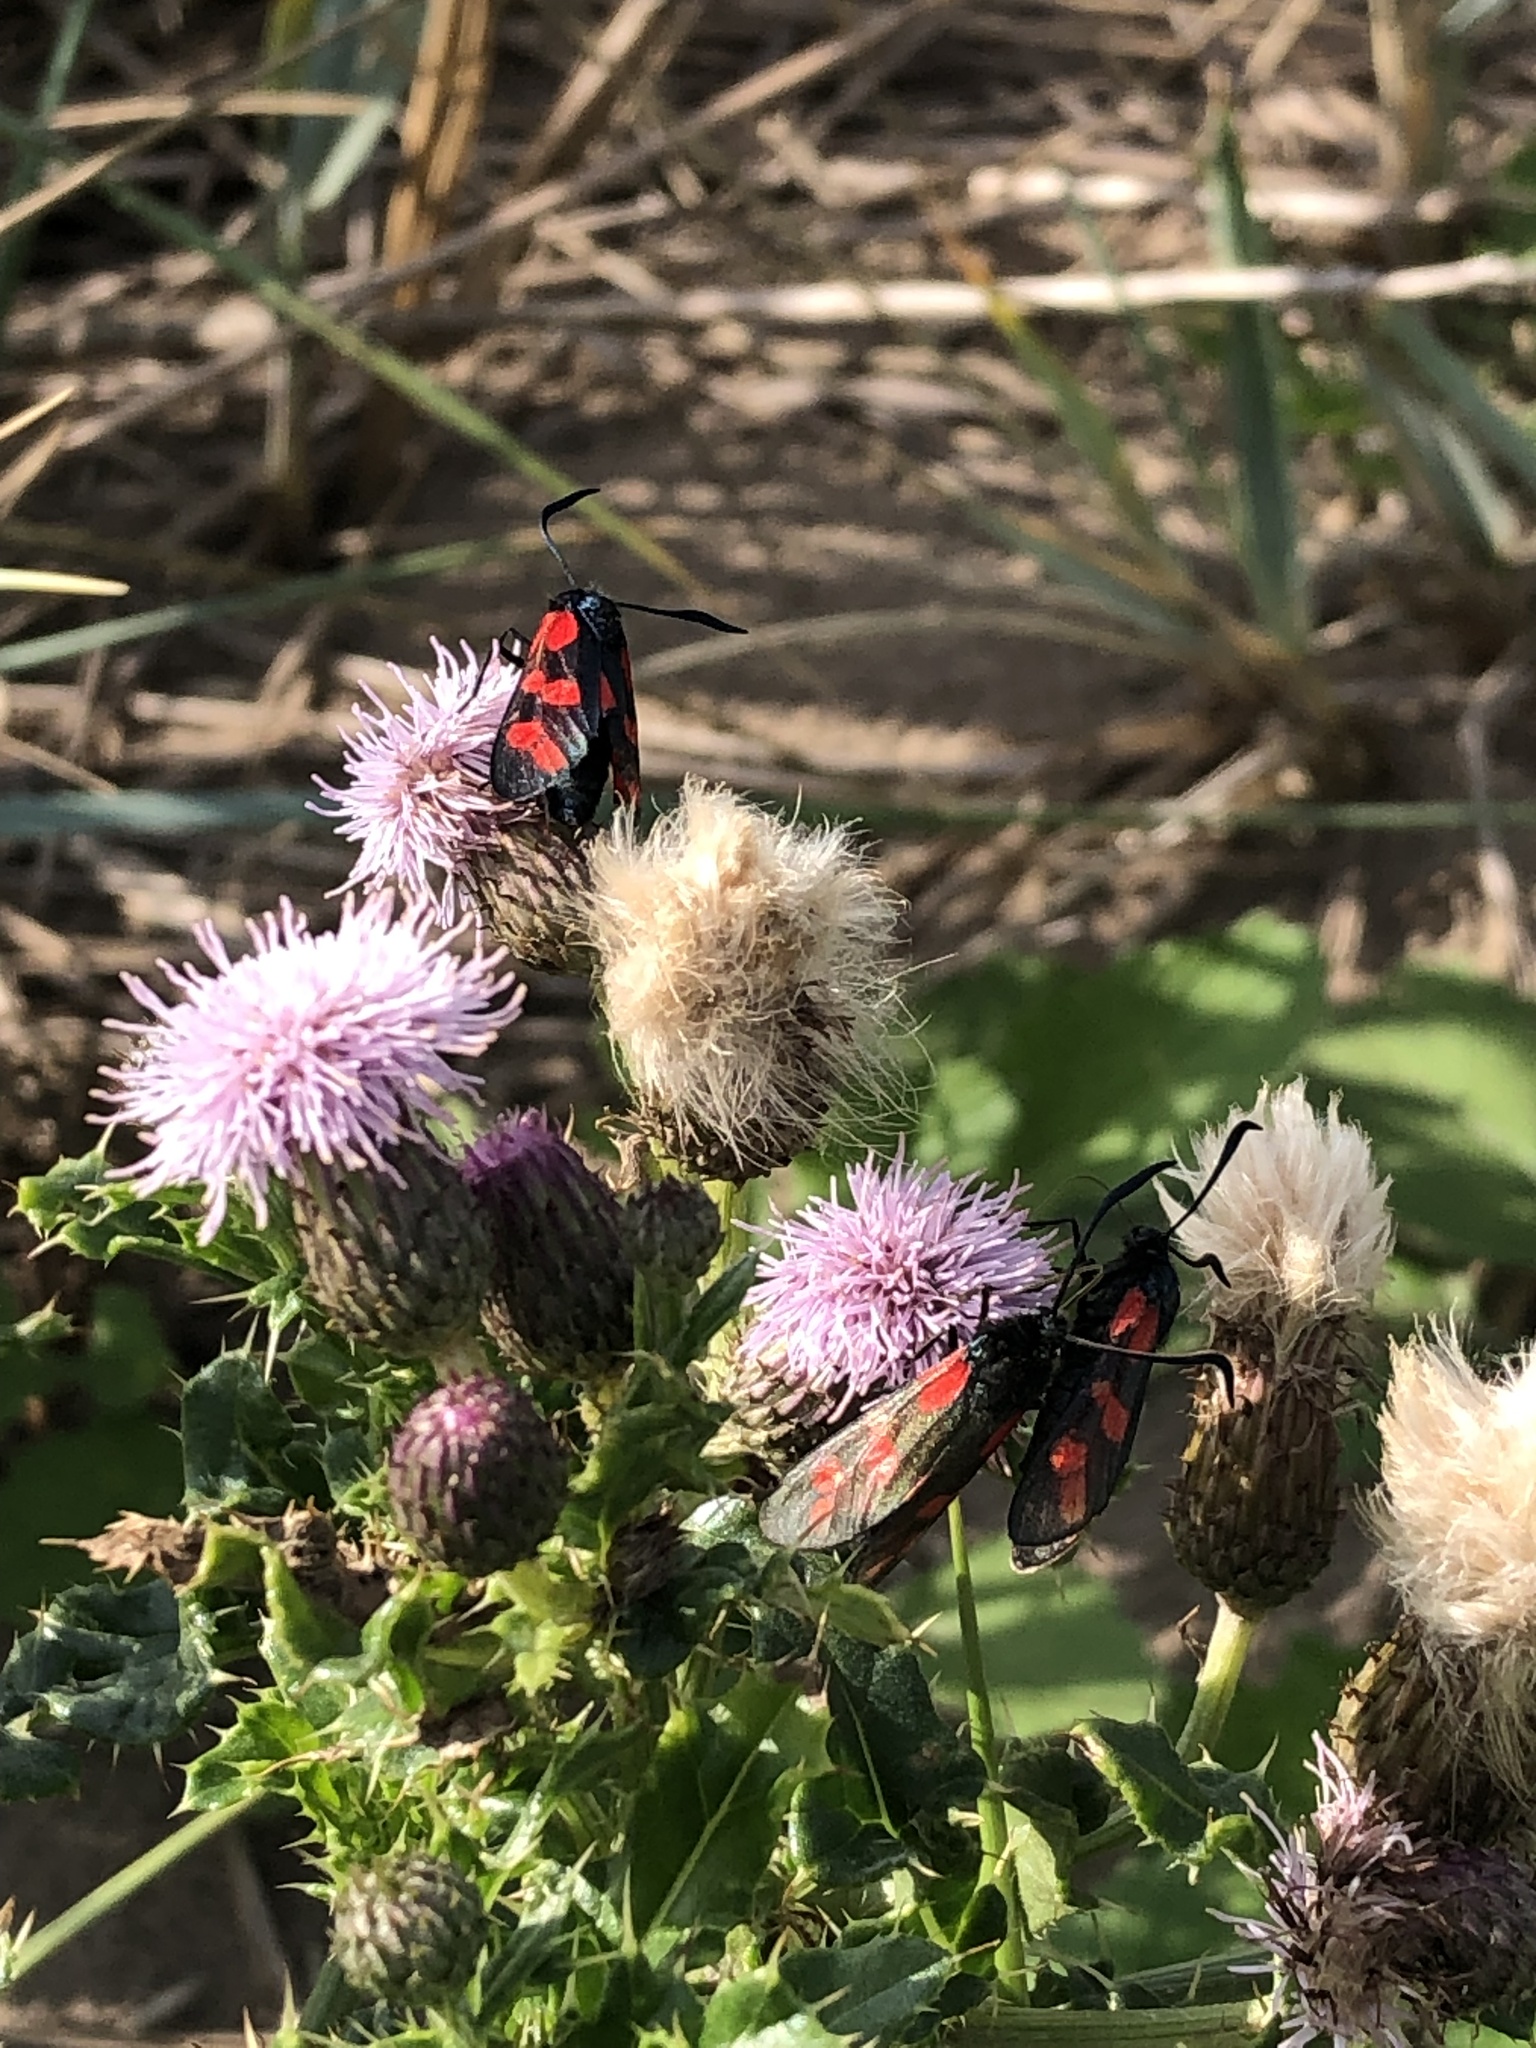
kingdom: Animalia
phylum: Arthropoda
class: Insecta
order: Lepidoptera
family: Zygaenidae
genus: Zygaena
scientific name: Zygaena filipendulae
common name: Six-spot burnet
